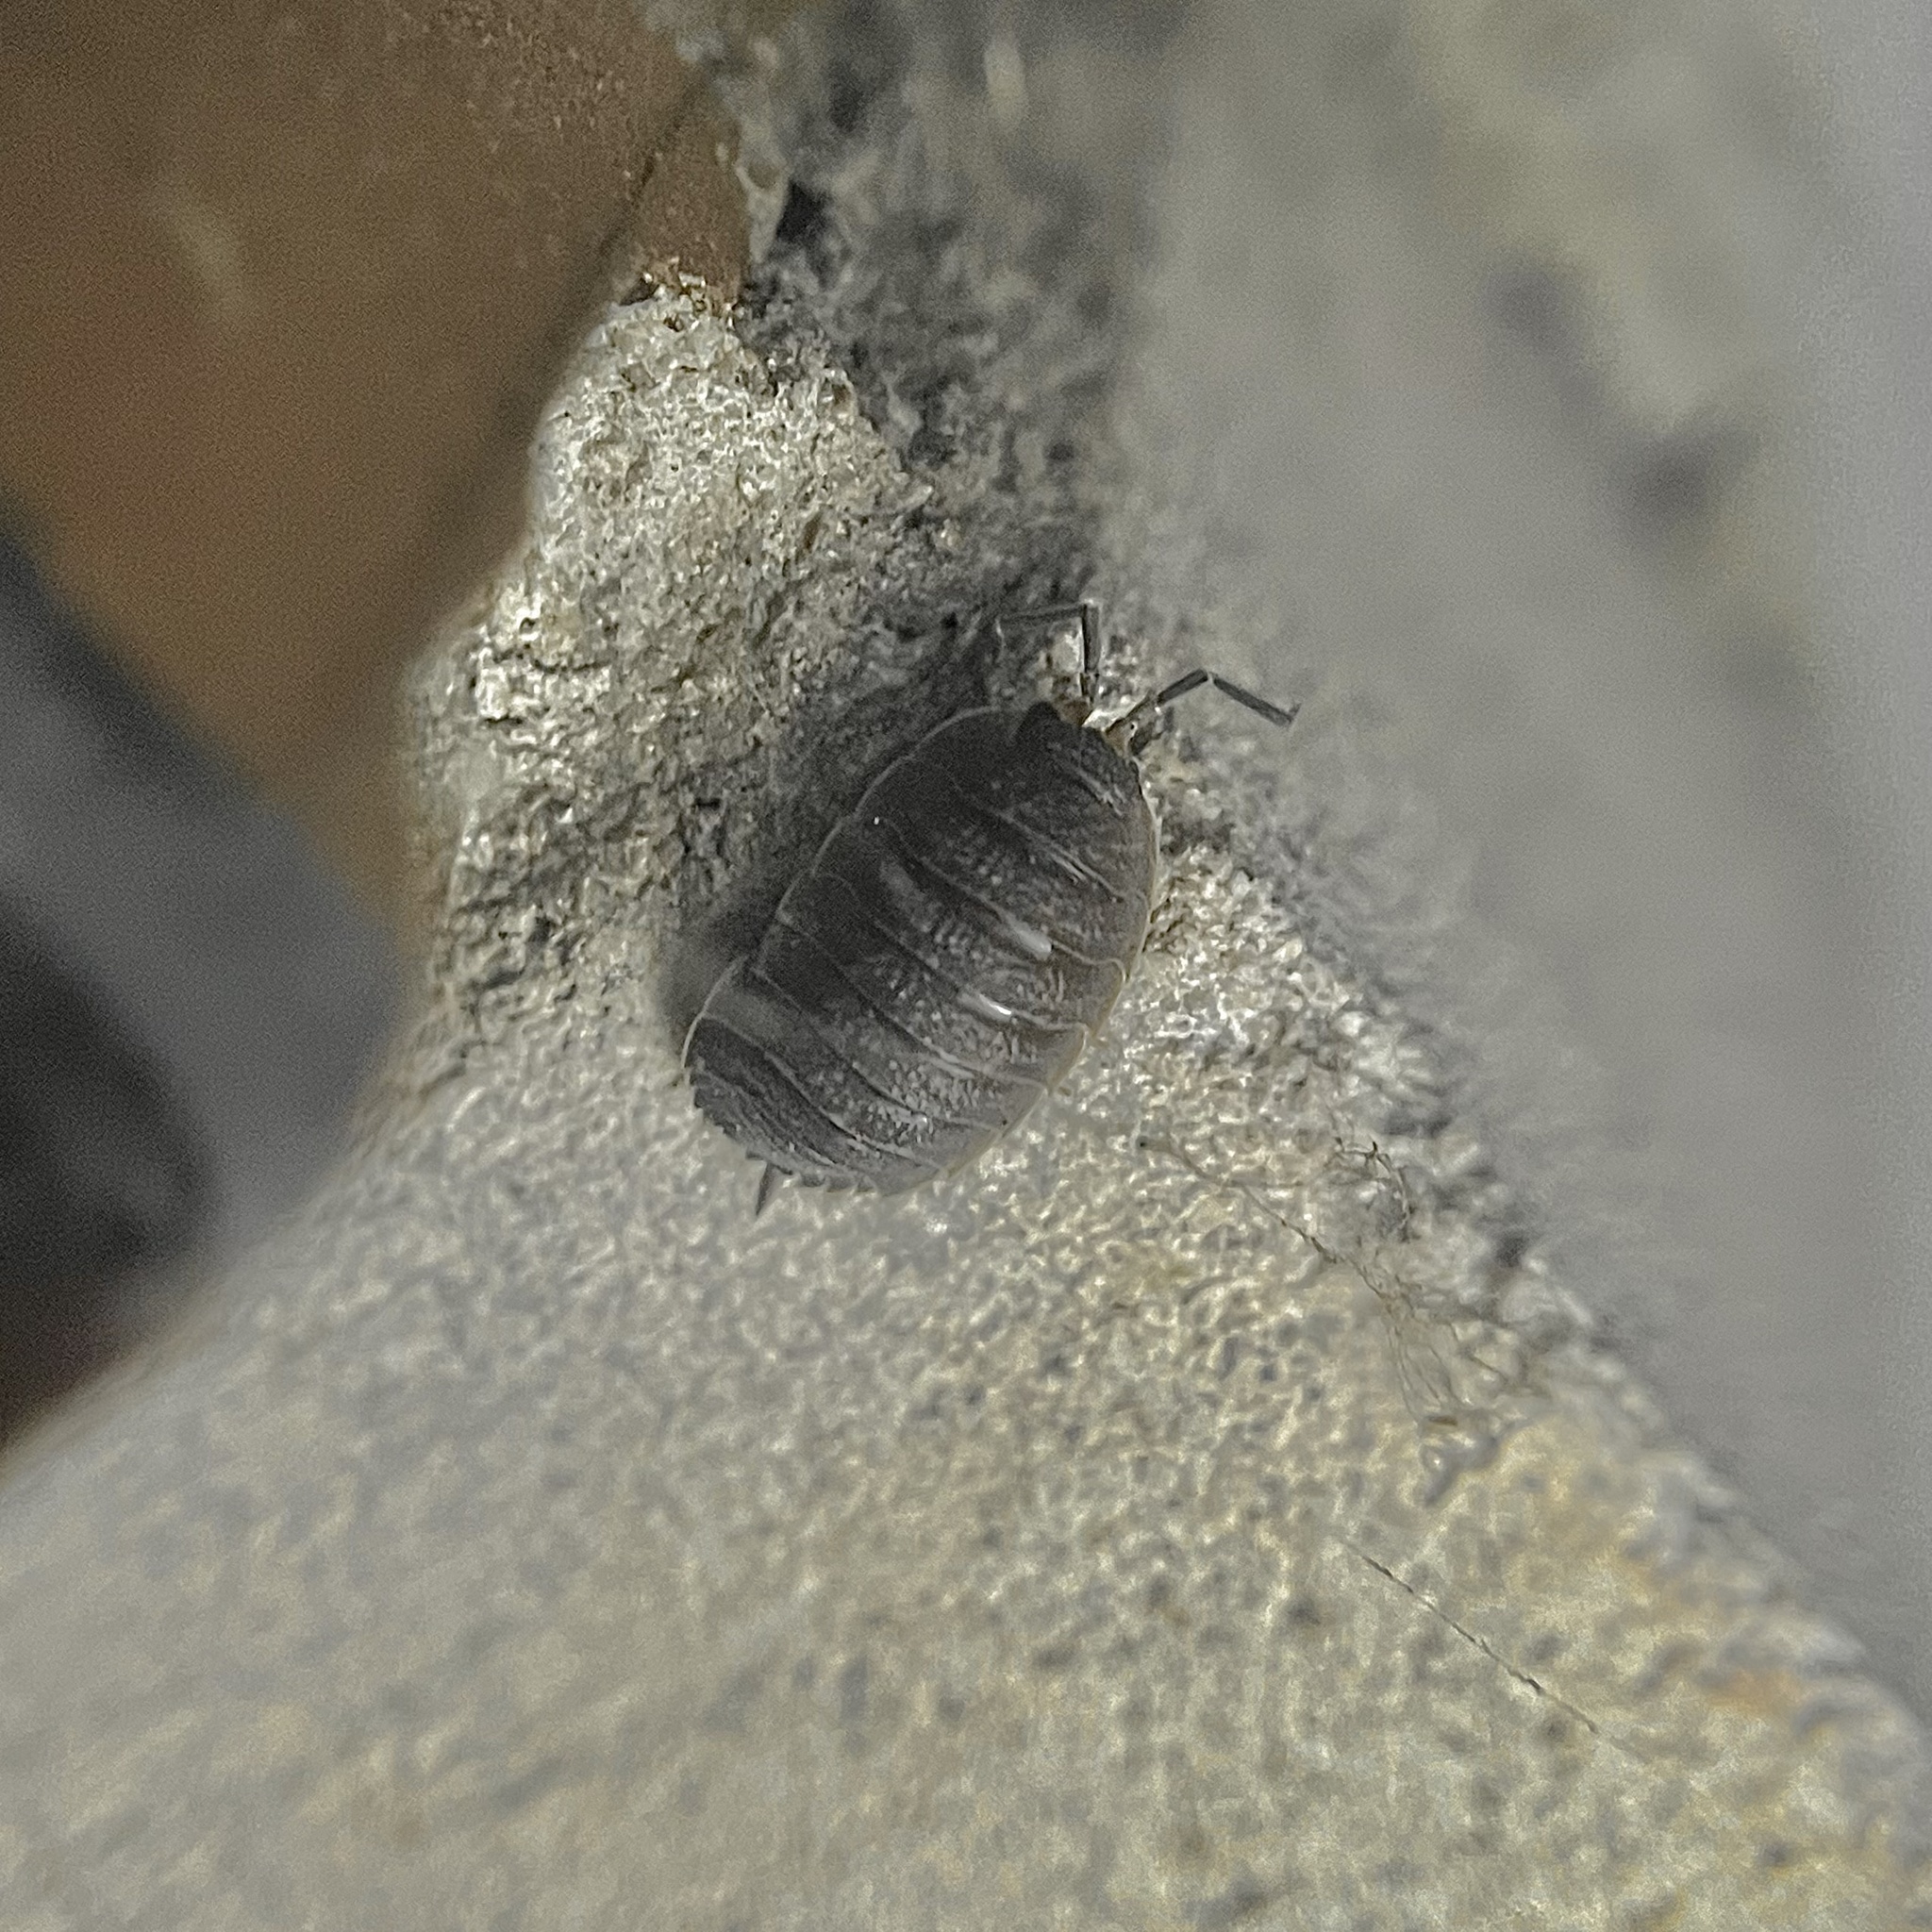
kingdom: Animalia
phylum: Arthropoda
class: Malacostraca
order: Isopoda
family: Porcellionidae
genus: Porcellio
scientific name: Porcellio scaber
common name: Common rough woodlouse
